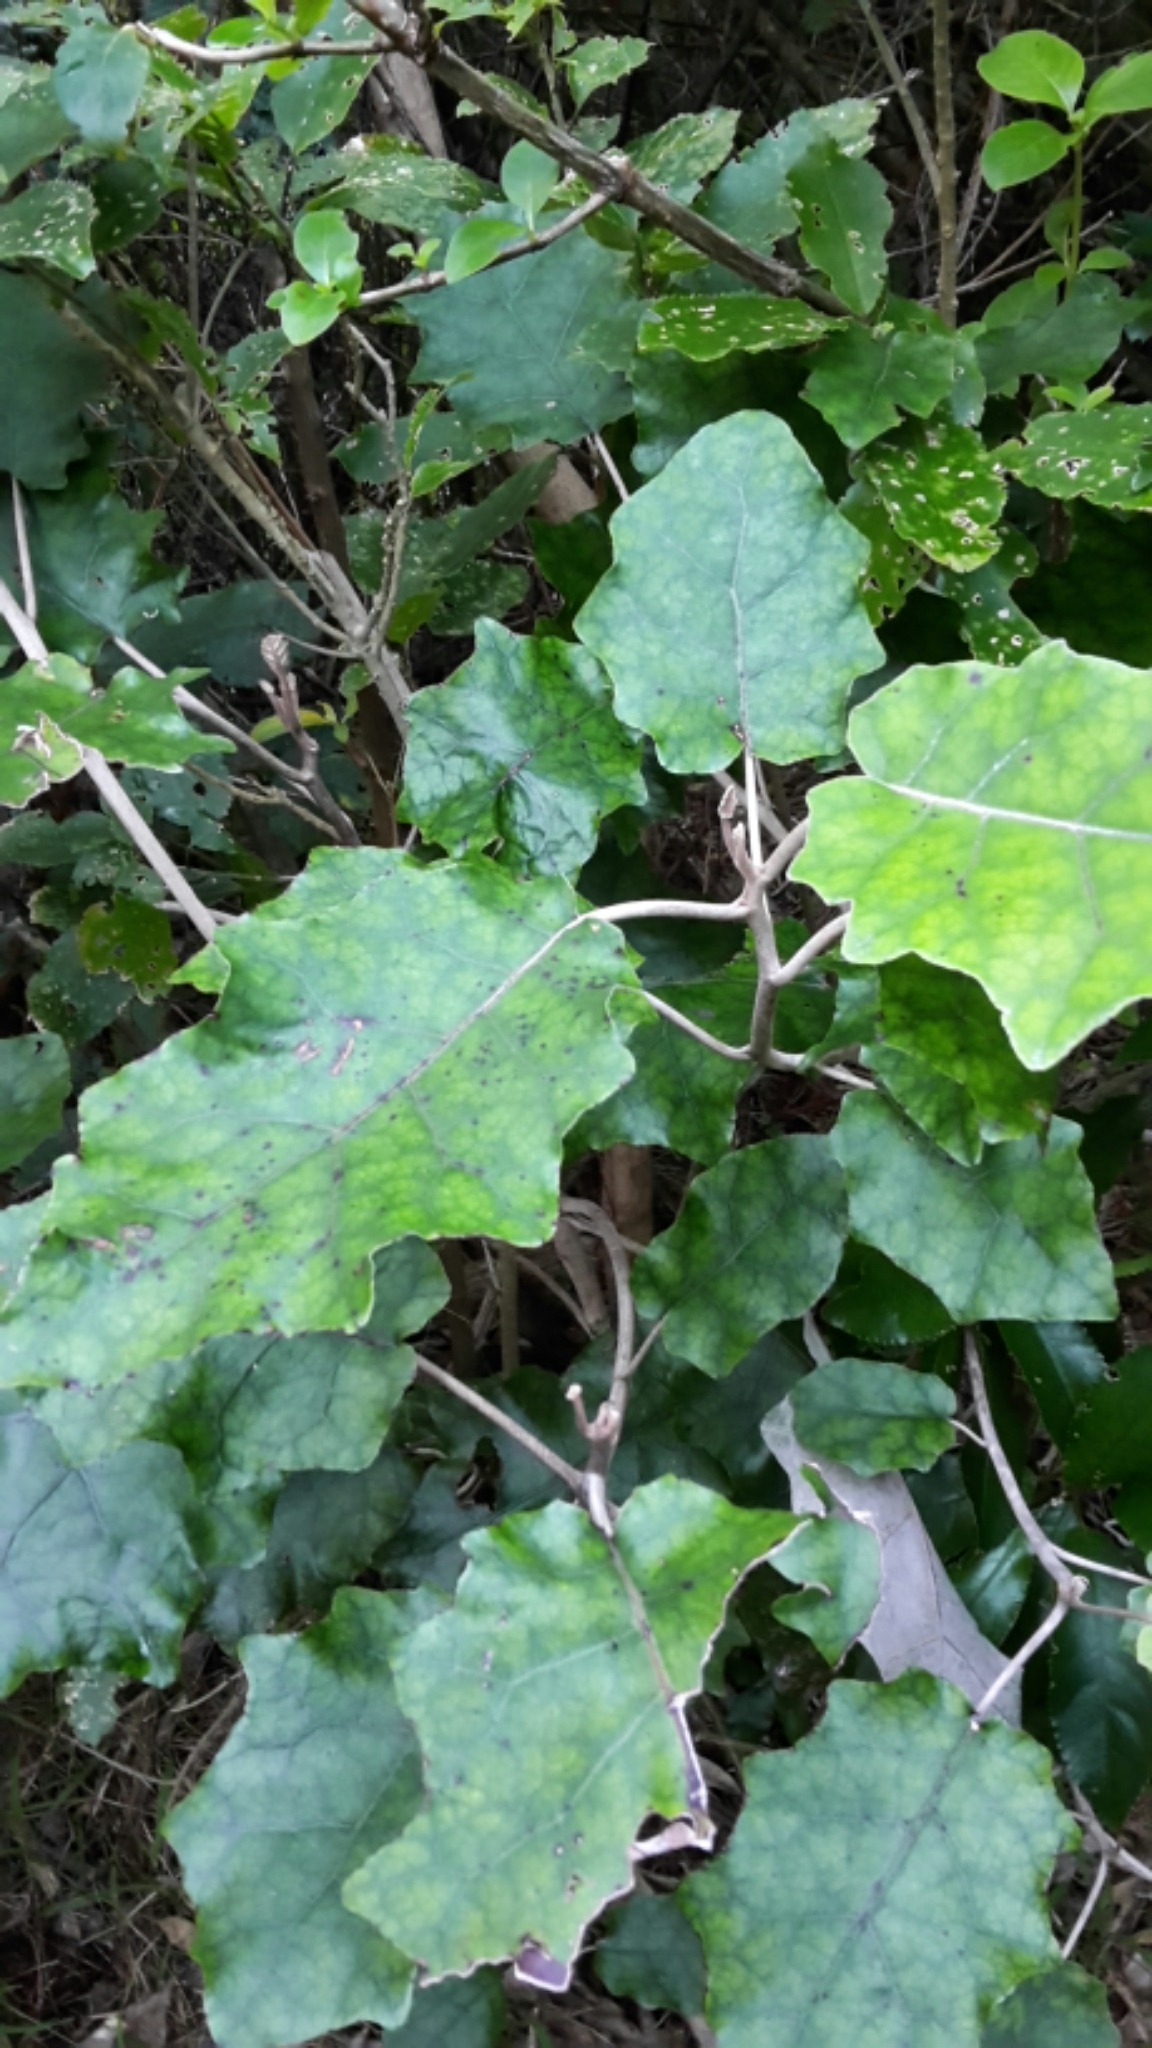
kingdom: Plantae
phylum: Tracheophyta
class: Magnoliopsida
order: Asterales
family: Asteraceae
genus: Brachyglottis
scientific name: Brachyglottis repanda
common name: Hedge ragwort
